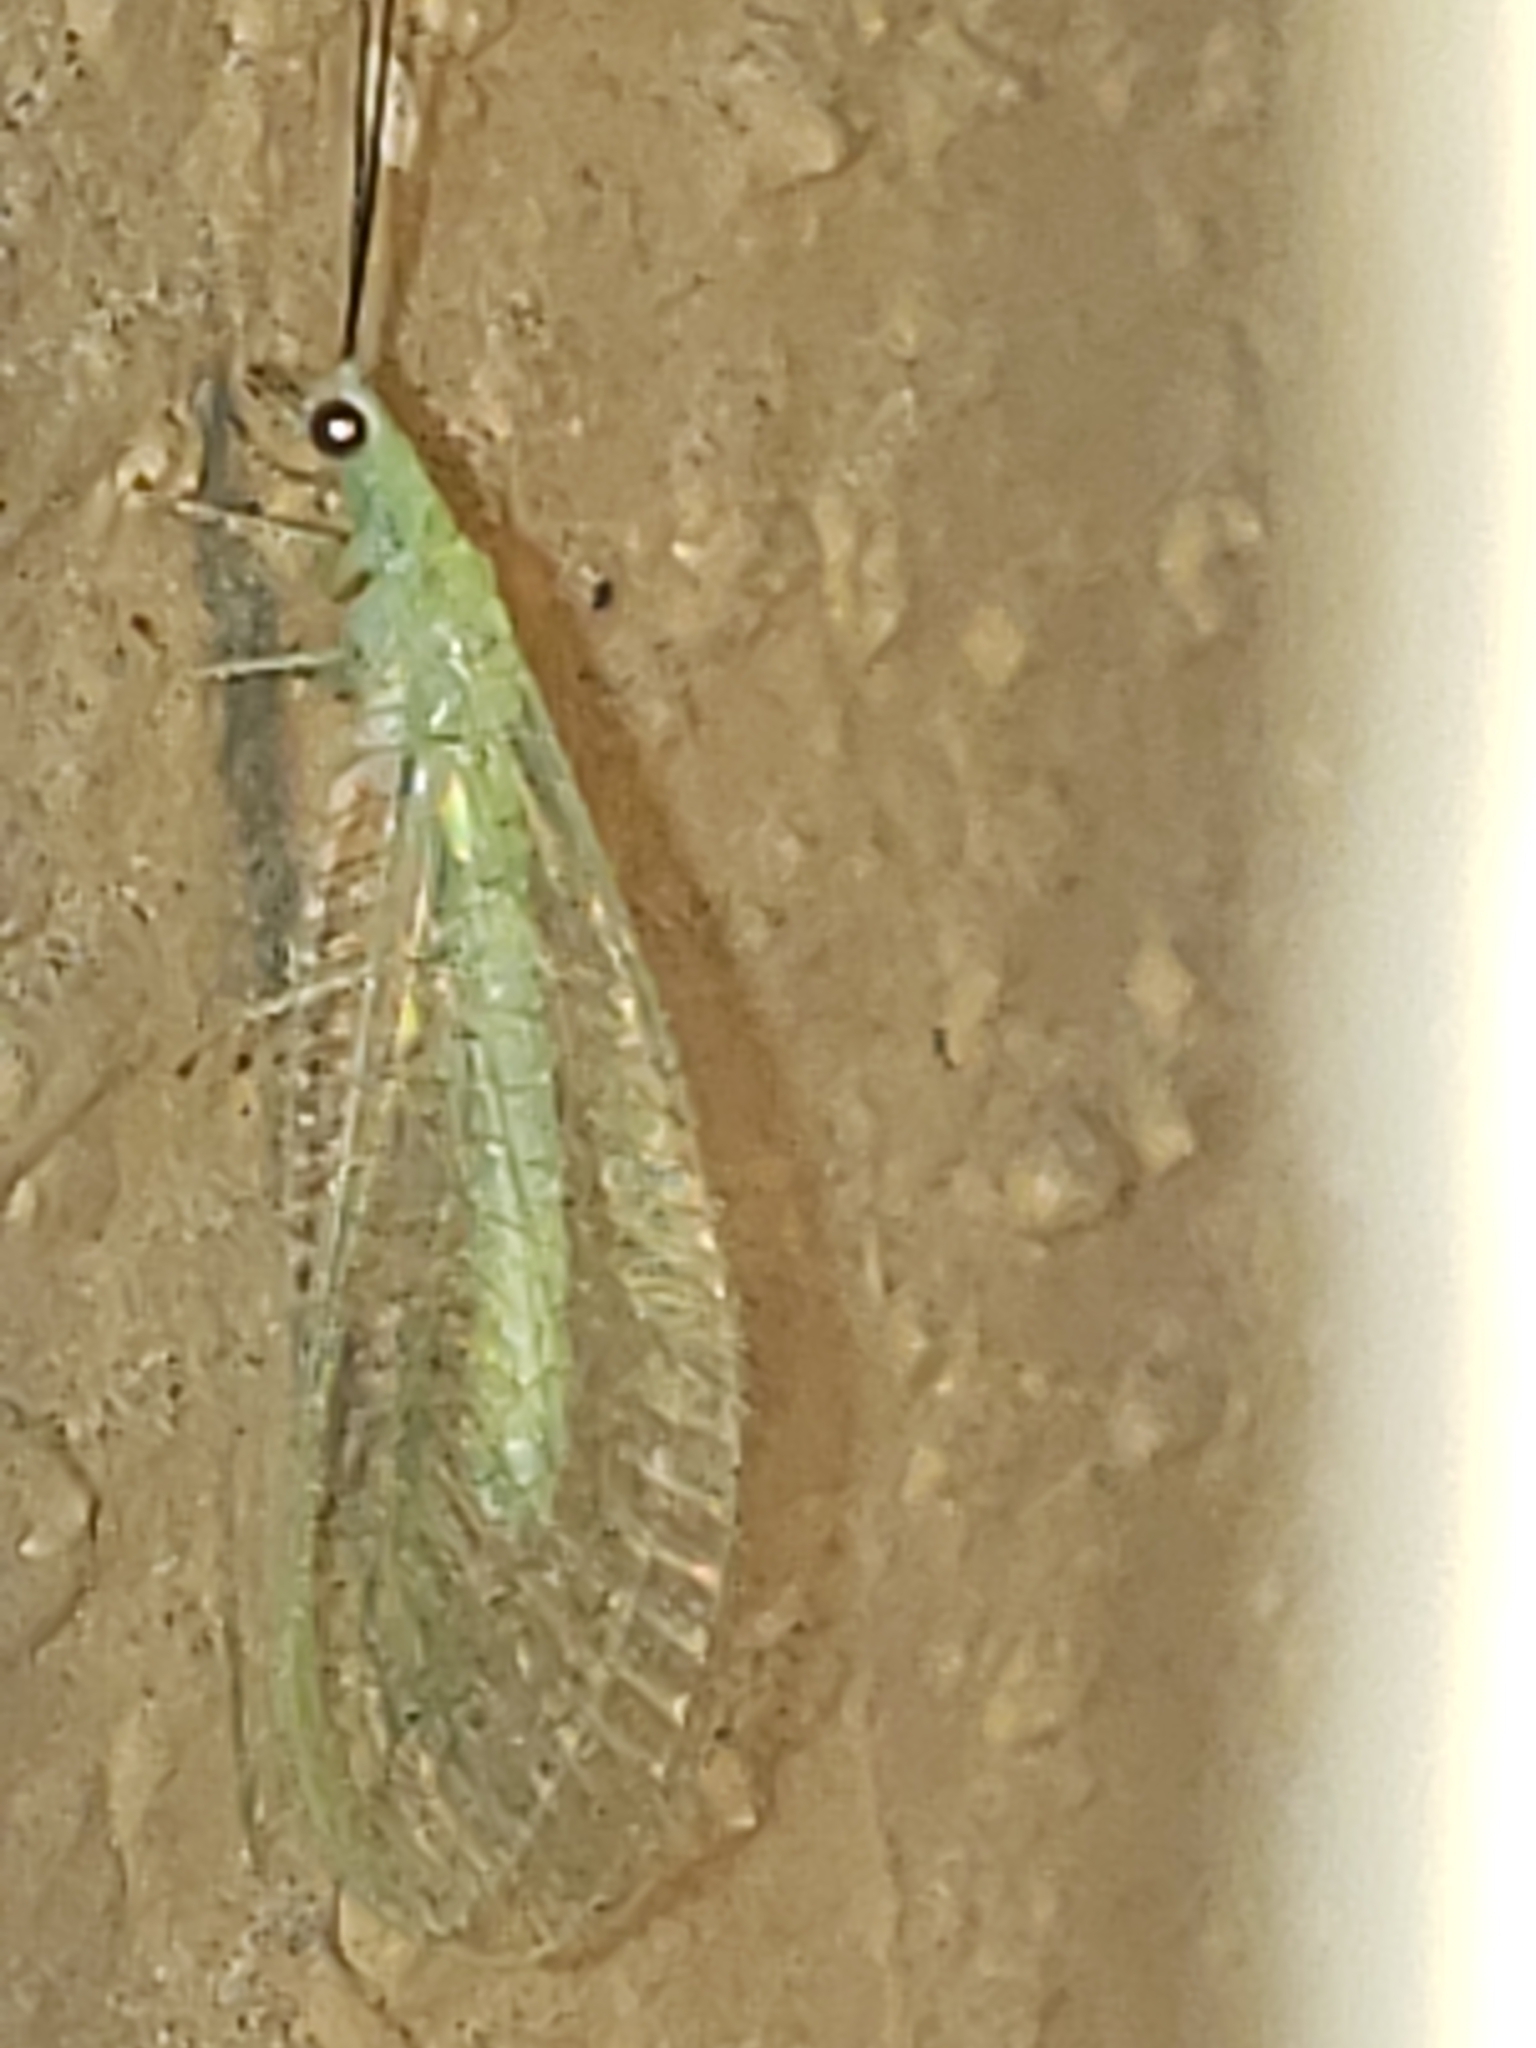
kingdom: Animalia
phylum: Arthropoda
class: Insecta
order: Neuroptera
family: Chrysopidae
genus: Chrysopa
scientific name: Chrysopa nigricornis
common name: Black-horned green lacewing
